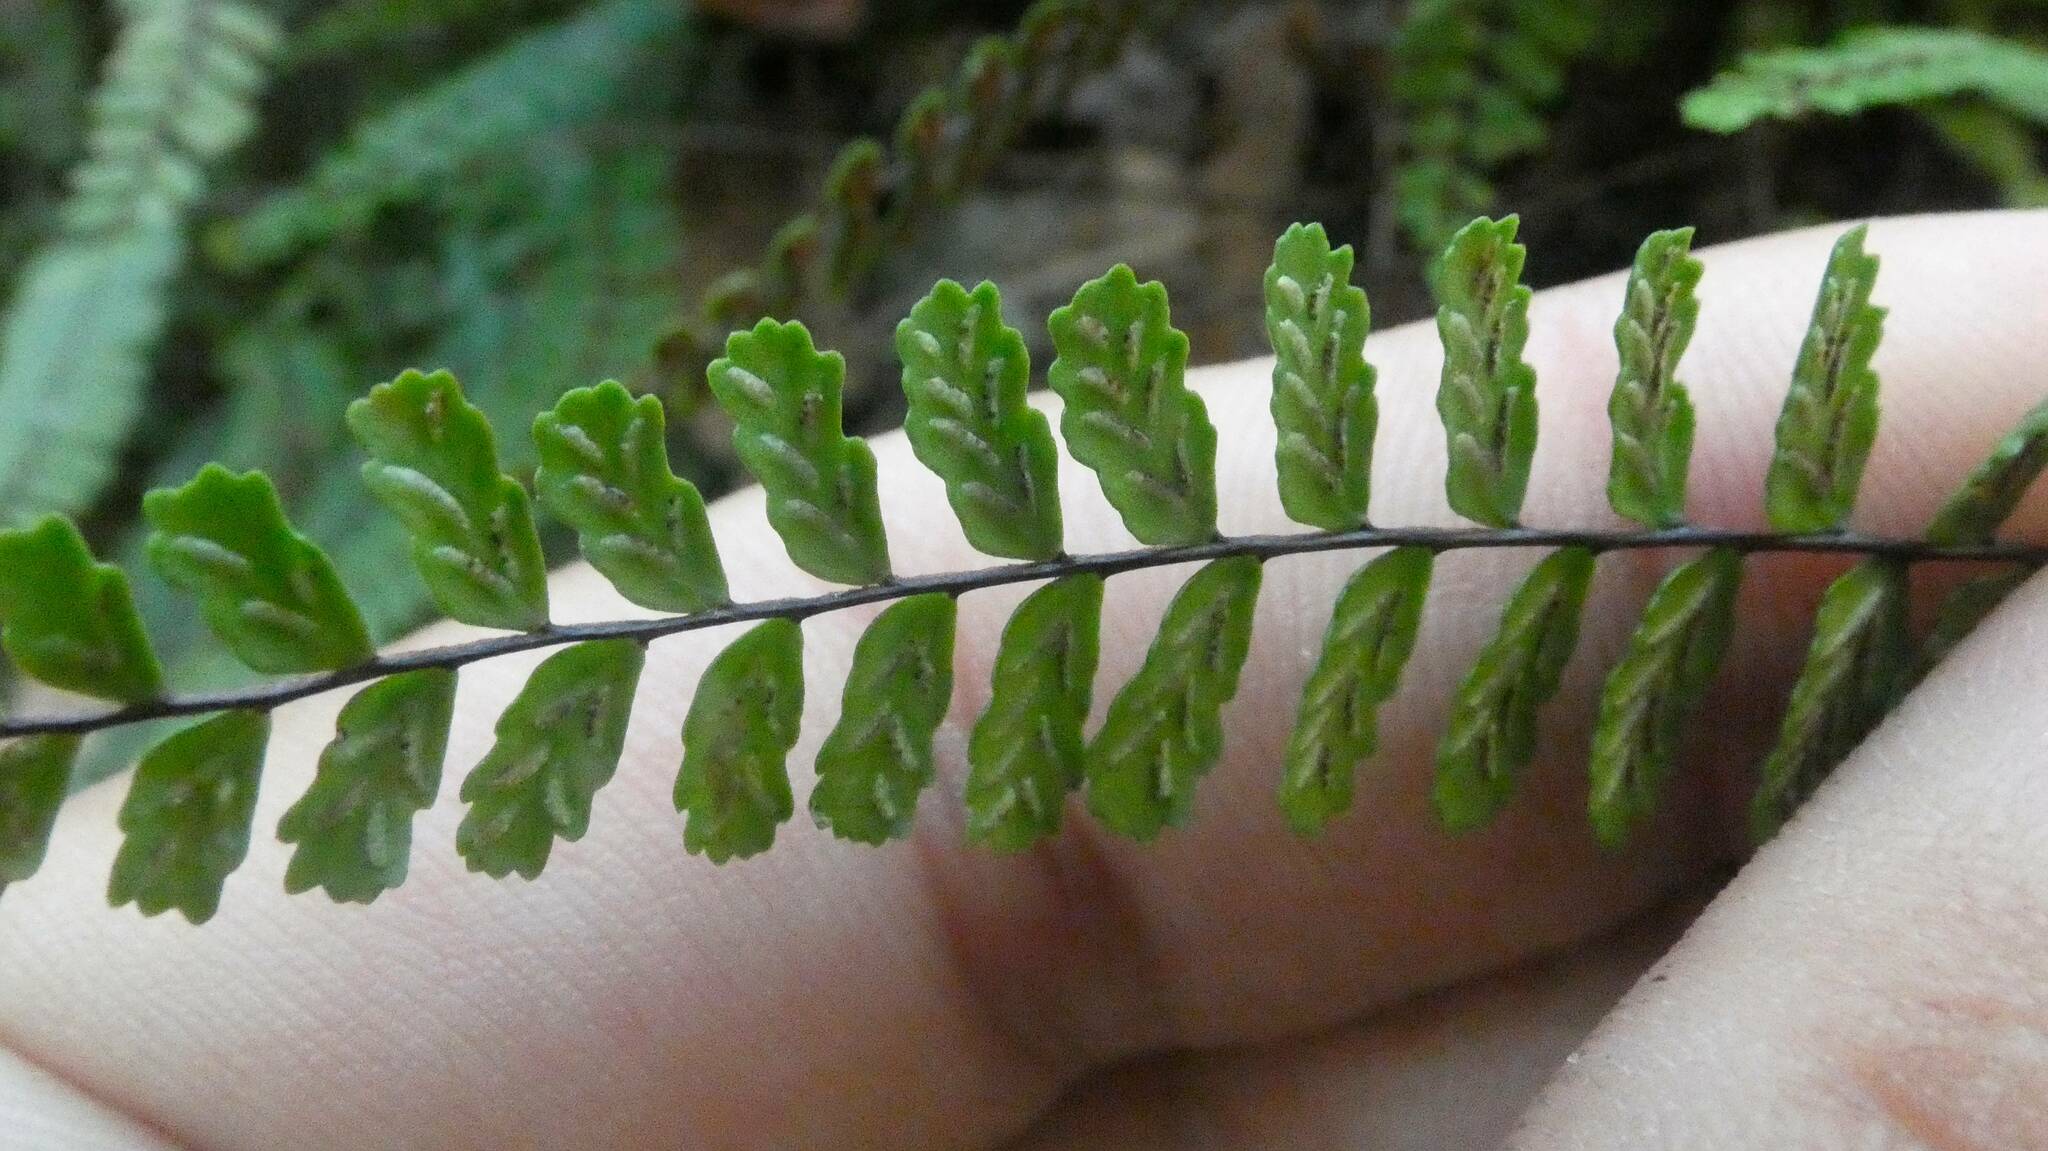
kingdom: Plantae
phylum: Tracheophyta
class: Polypodiopsida
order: Polypodiales
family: Aspleniaceae
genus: Asplenium
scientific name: Asplenium trichomanes
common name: Maidenhair spleenwort
